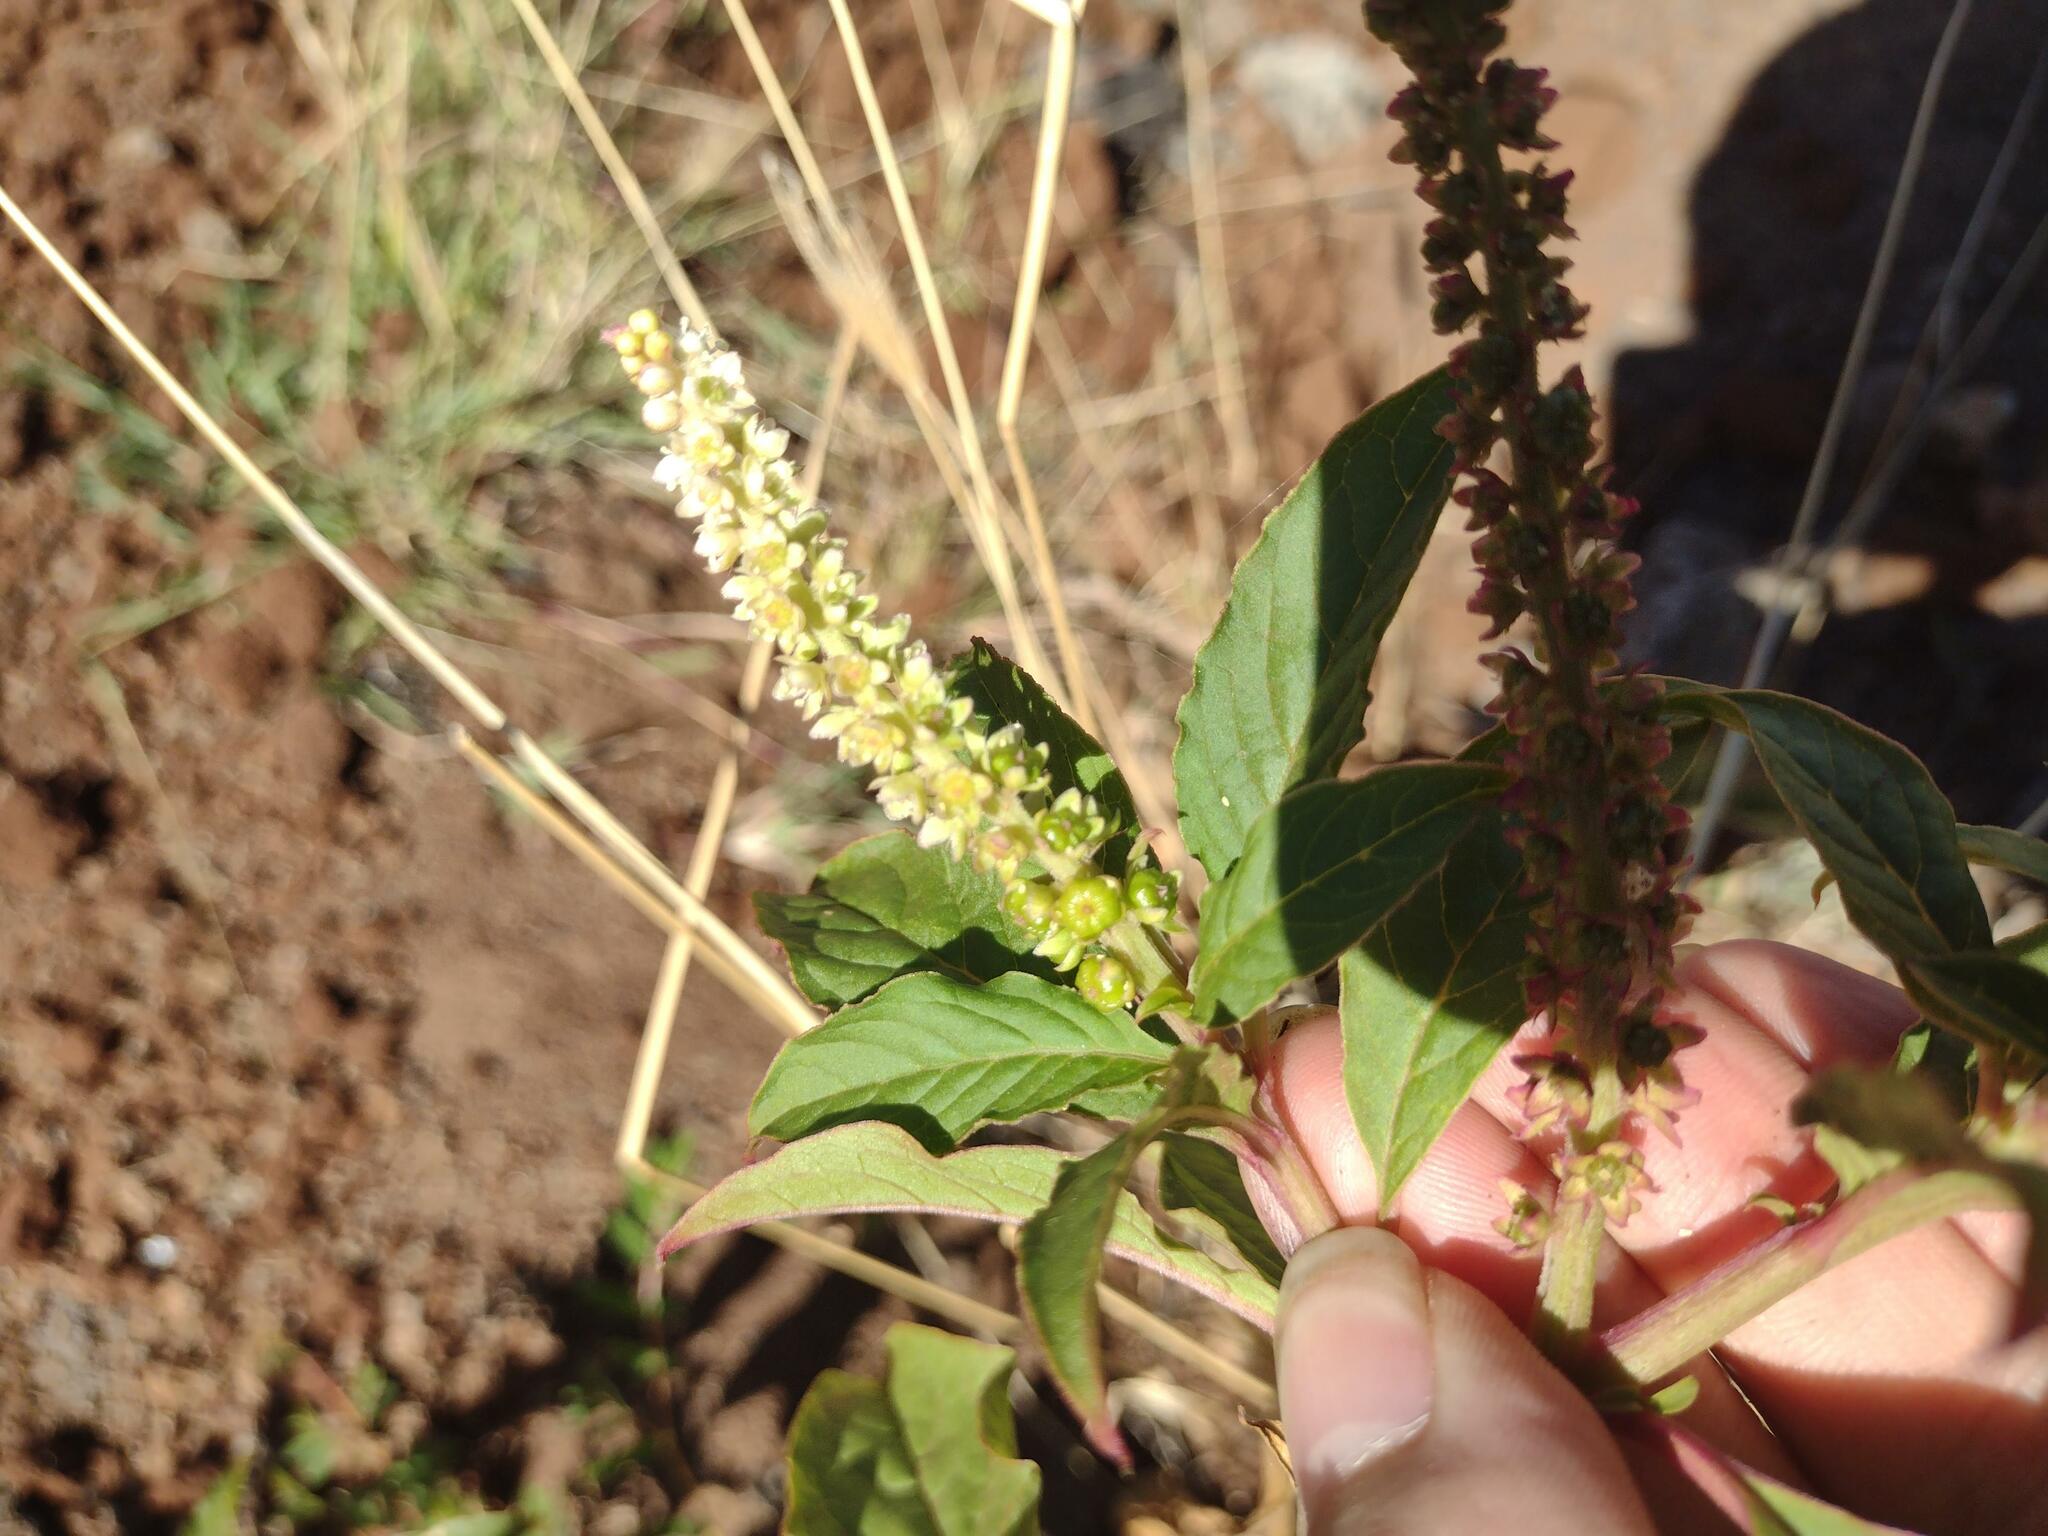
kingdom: Plantae
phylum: Tracheophyta
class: Magnoliopsida
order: Caryophyllales
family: Phytolaccaceae
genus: Phytolacca
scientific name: Phytolacca icosandra
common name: Button pokeweed
